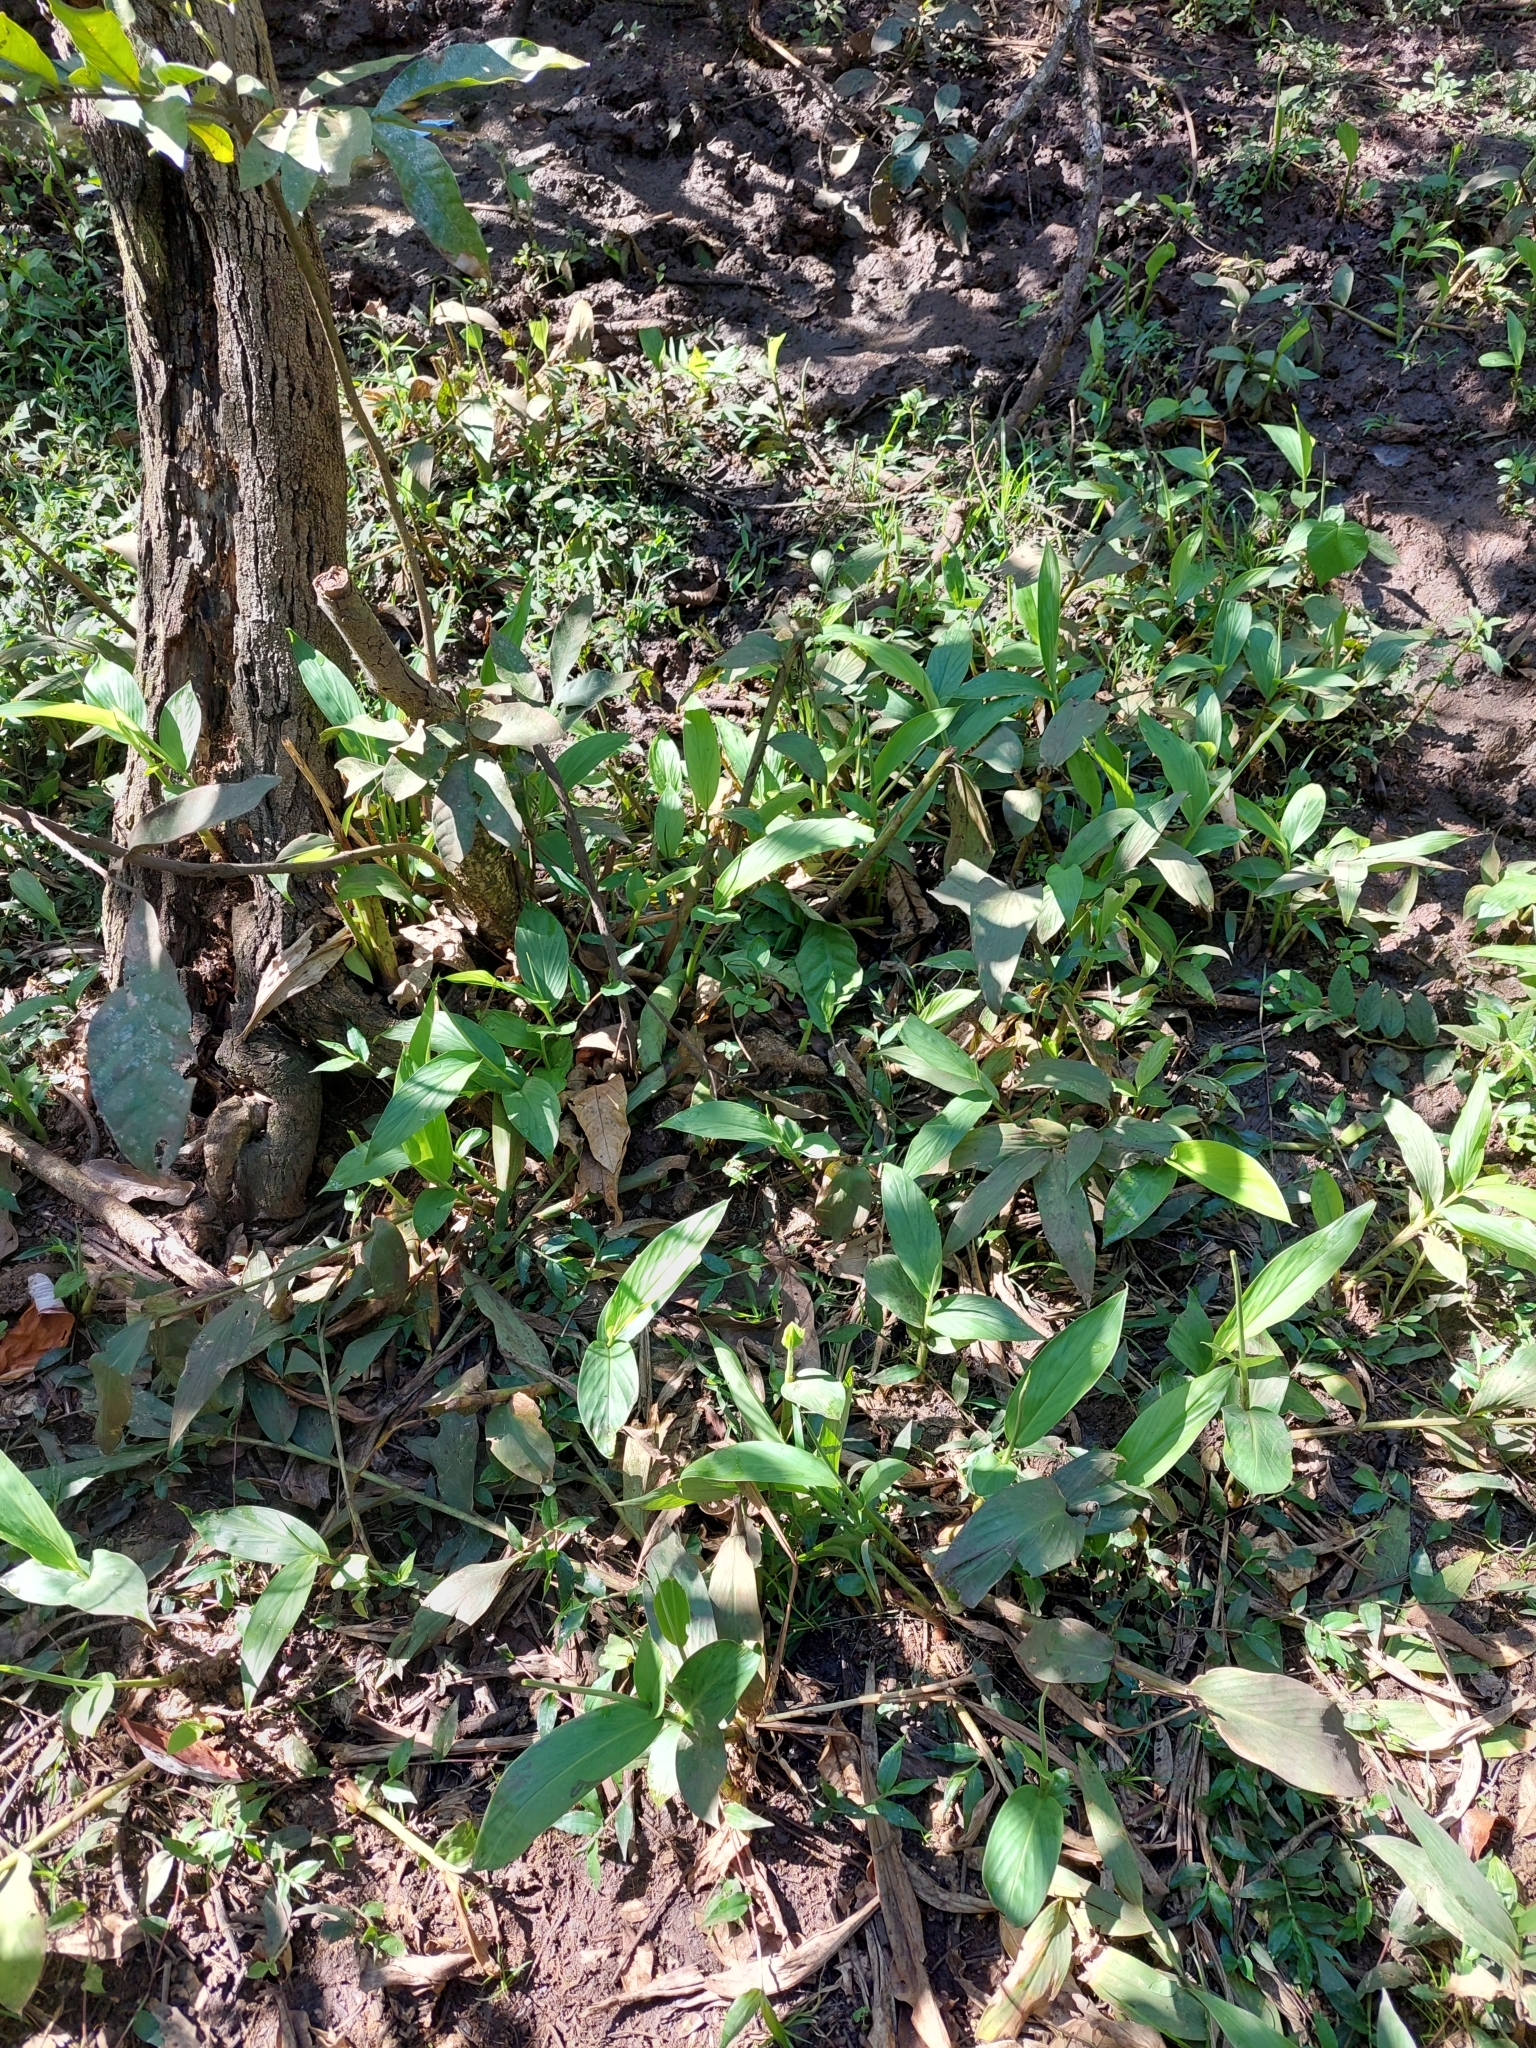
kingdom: Plantae
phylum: Tracheophyta
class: Liliopsida
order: Zingiberales
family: Zingiberaceae
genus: Hedychium
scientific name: Hedychium coronarium
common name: White garland-lily
